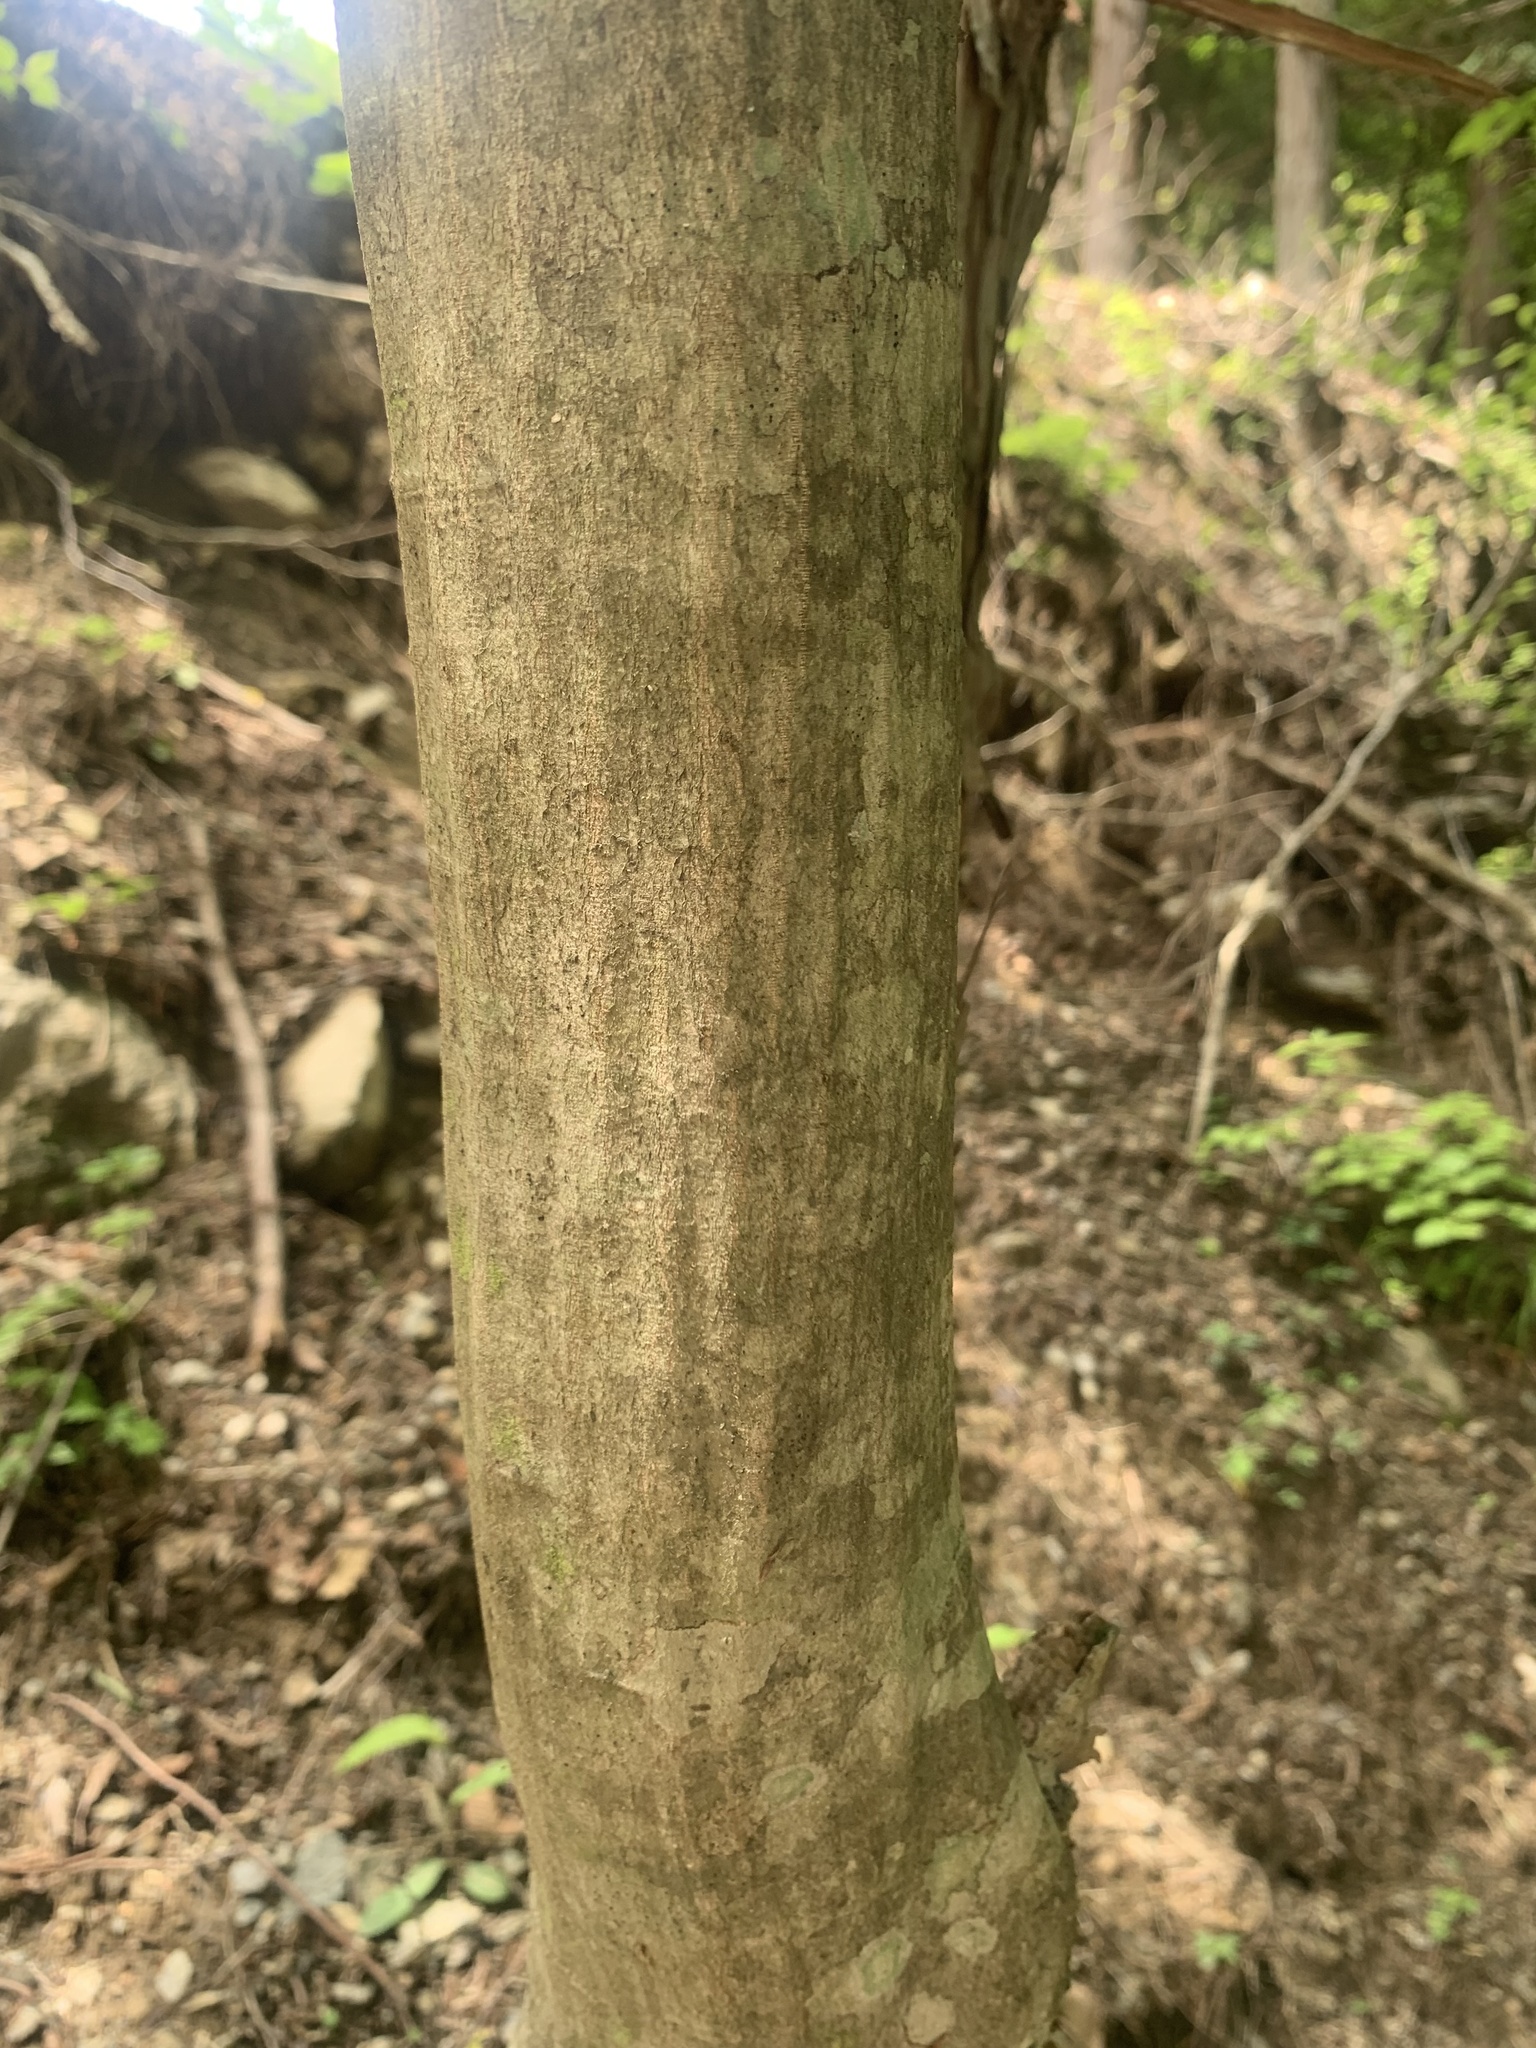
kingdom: Plantae
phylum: Tracheophyta
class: Magnoliopsida
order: Fagales
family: Betulaceae
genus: Carpinus
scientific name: Carpinus laxiflora
